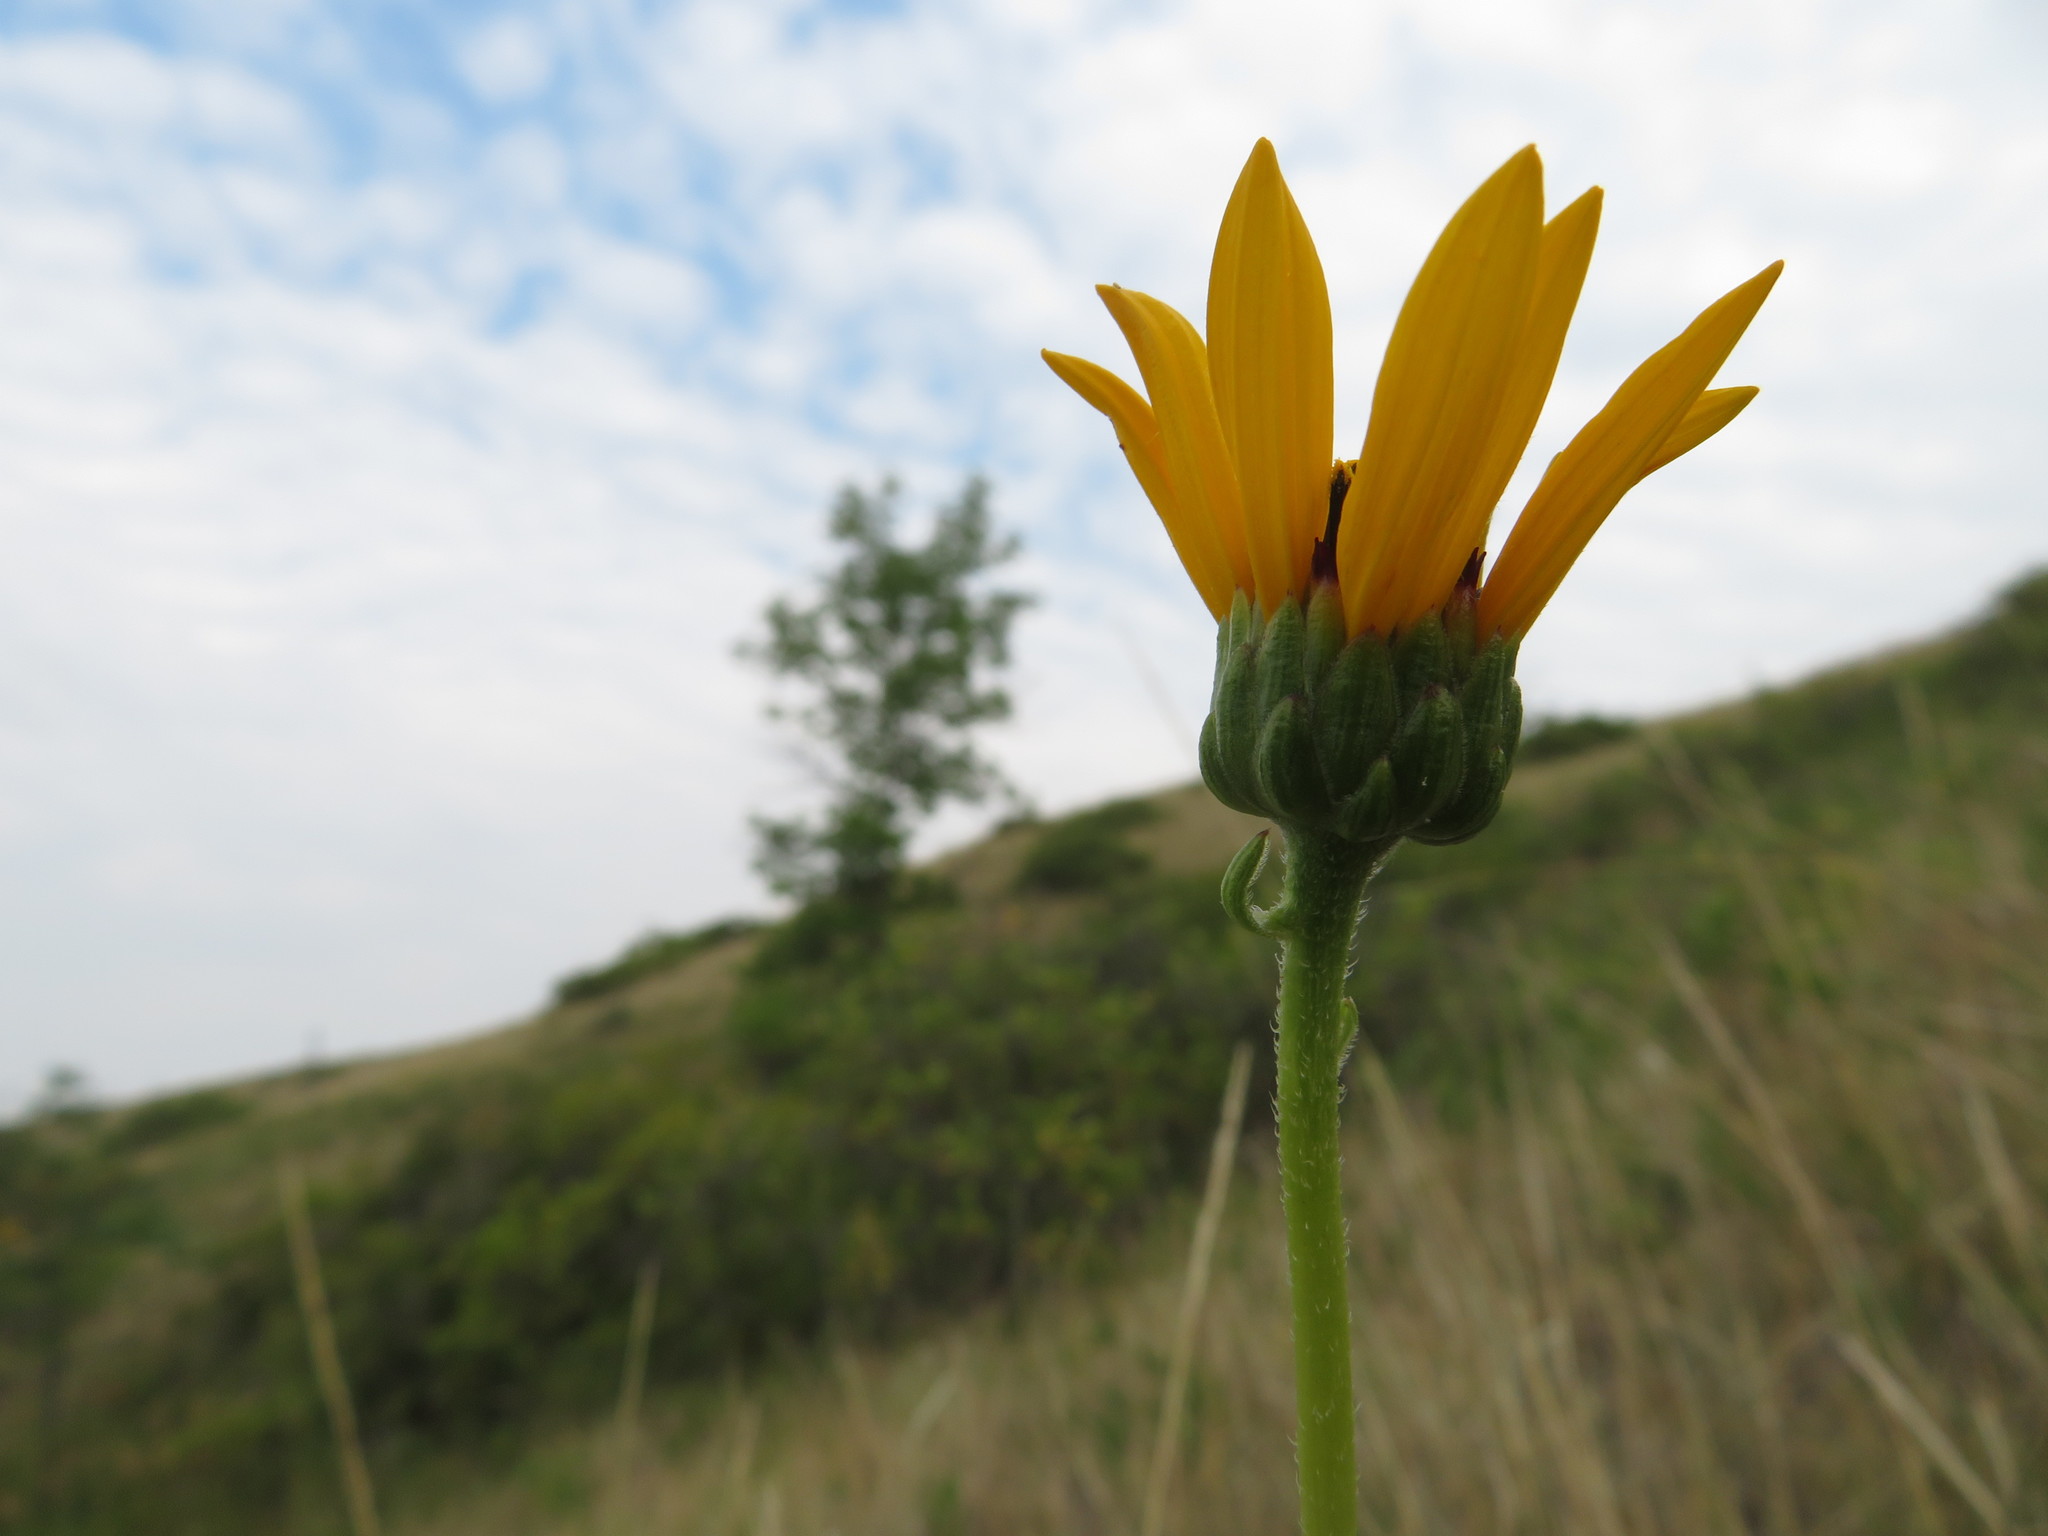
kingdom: Plantae
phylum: Tracheophyta
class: Magnoliopsida
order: Asterales
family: Asteraceae
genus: Helianthus
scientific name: Helianthus pauciflorus
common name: Stiff sunflower
